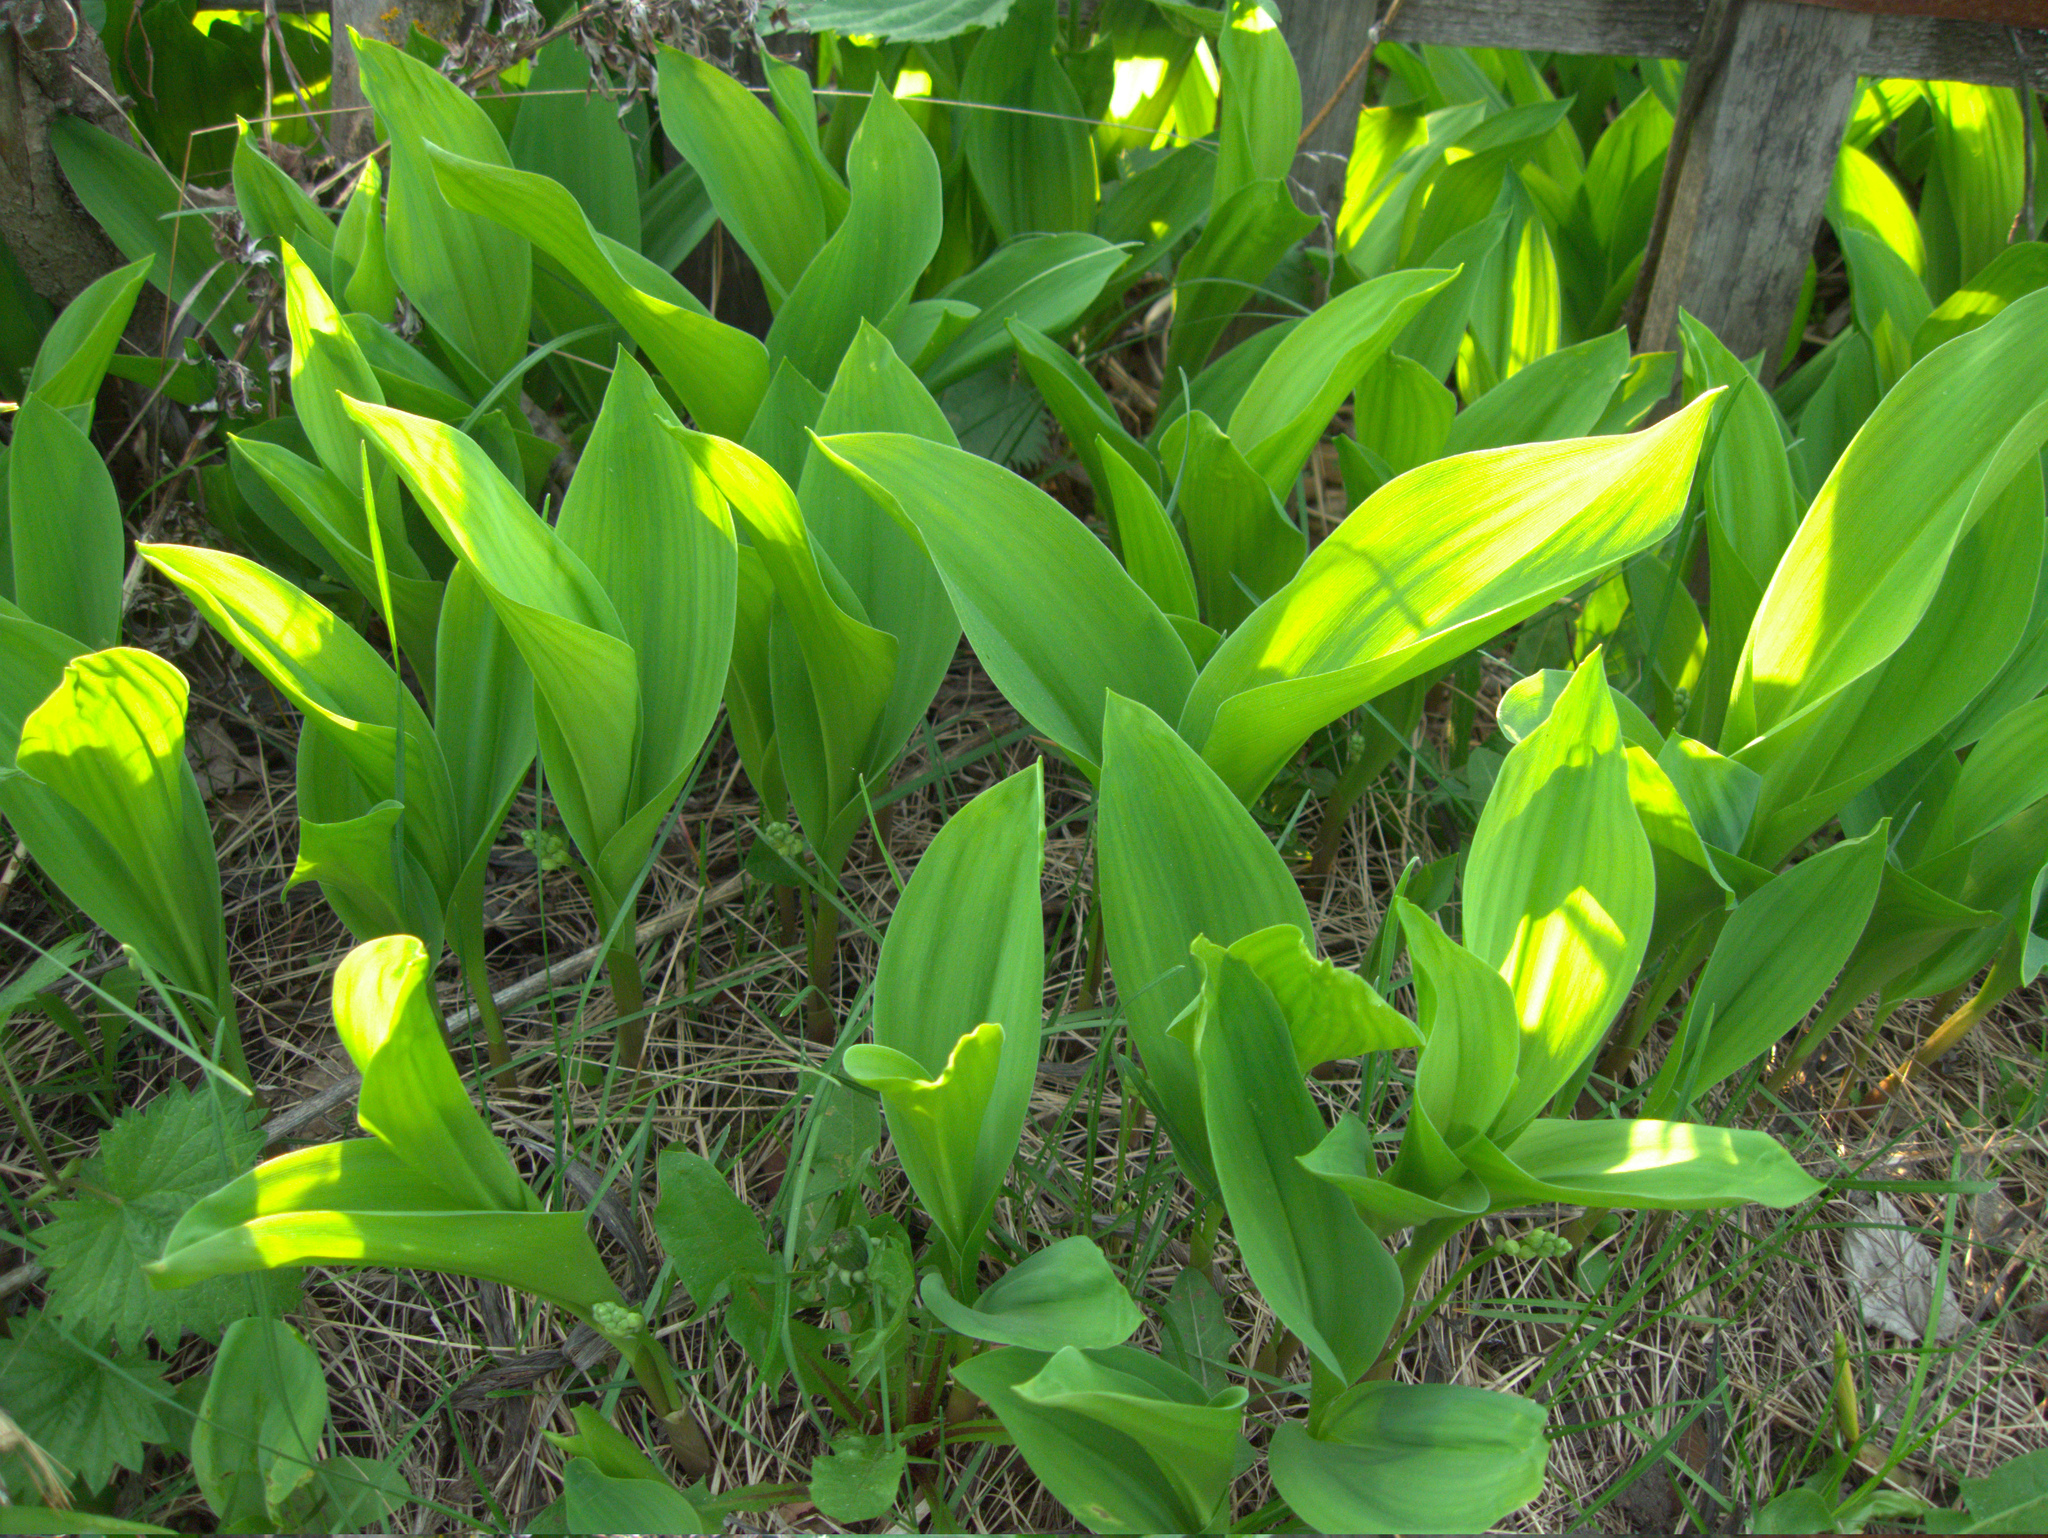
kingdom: Plantae
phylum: Tracheophyta
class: Liliopsida
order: Asparagales
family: Asparagaceae
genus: Convallaria
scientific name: Convallaria majalis
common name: Lily-of-the-valley
